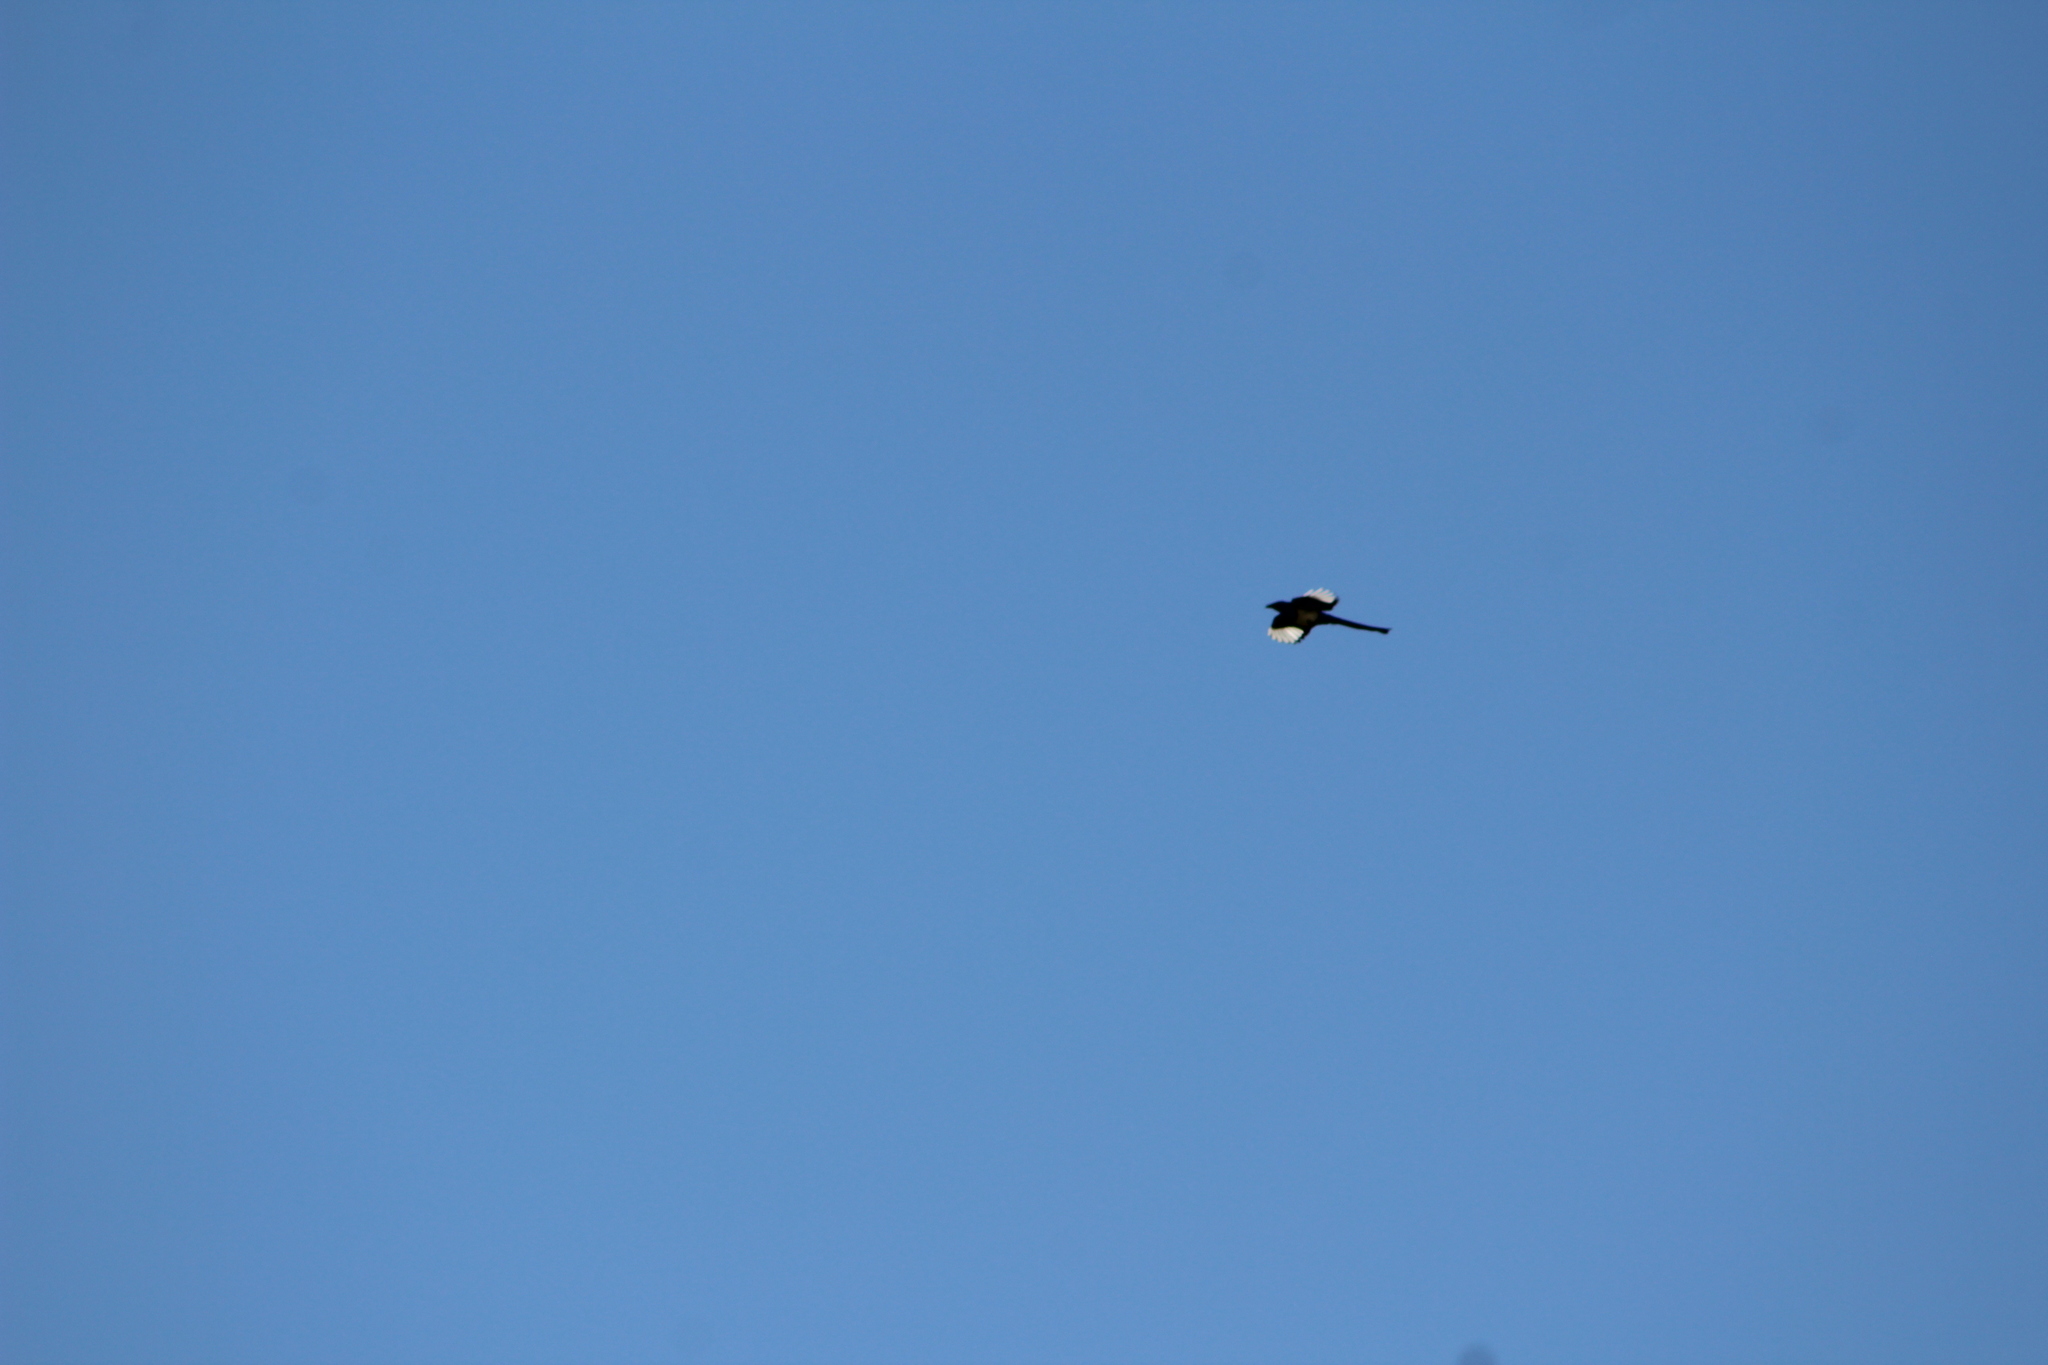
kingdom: Animalia
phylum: Chordata
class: Aves
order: Passeriformes
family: Corvidae
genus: Pica
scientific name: Pica hudsonia
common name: Black-billed magpie
